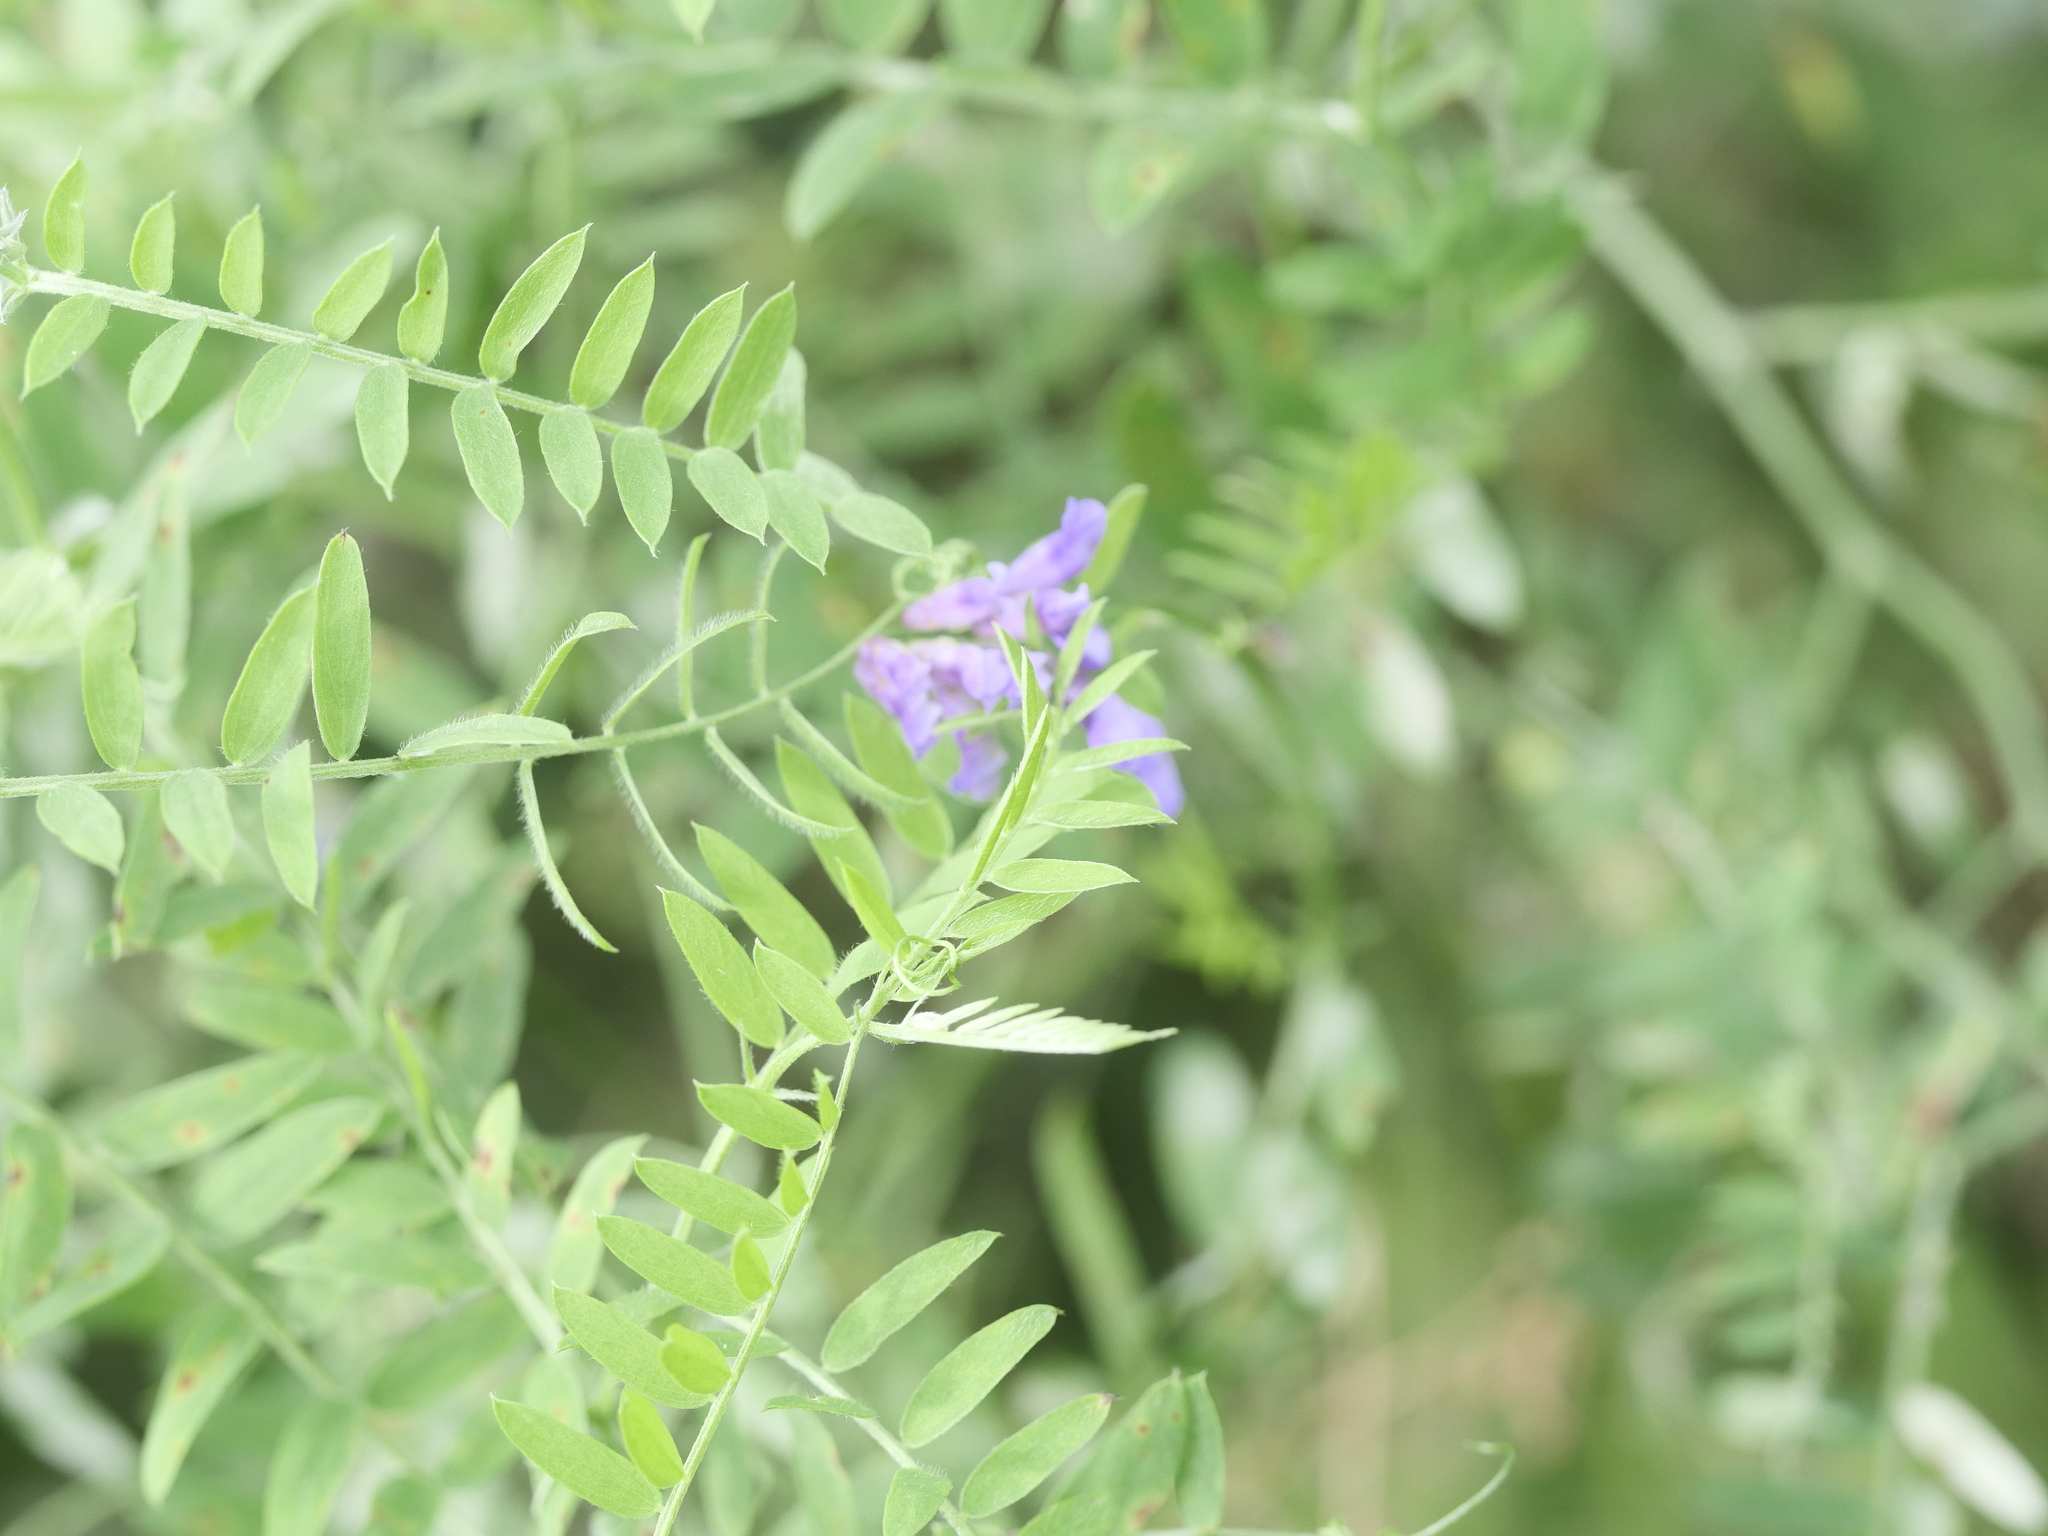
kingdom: Plantae
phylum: Tracheophyta
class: Magnoliopsida
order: Fabales
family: Fabaceae
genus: Vicia
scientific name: Vicia cracca
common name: Bird vetch
